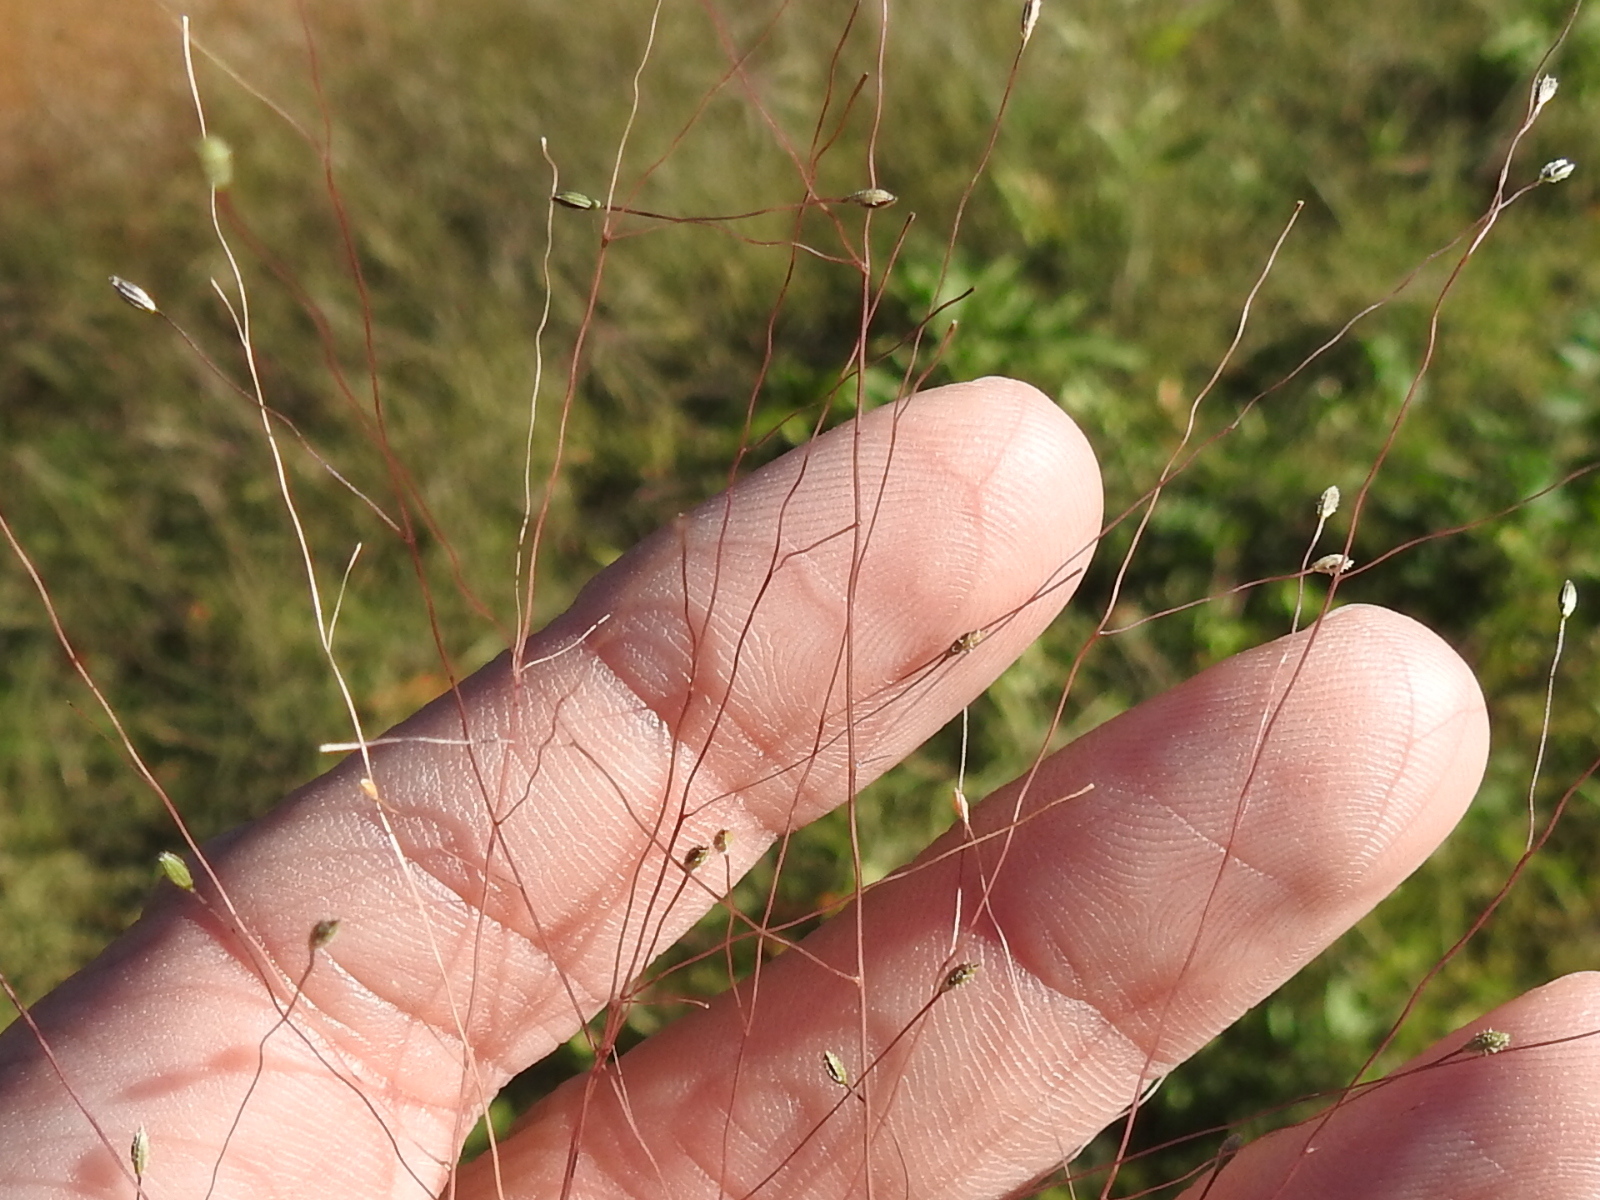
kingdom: Plantae
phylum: Tracheophyta
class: Liliopsida
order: Poales
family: Poaceae
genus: Digitaria
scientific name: Digitaria cognata
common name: Fall witchgrass
